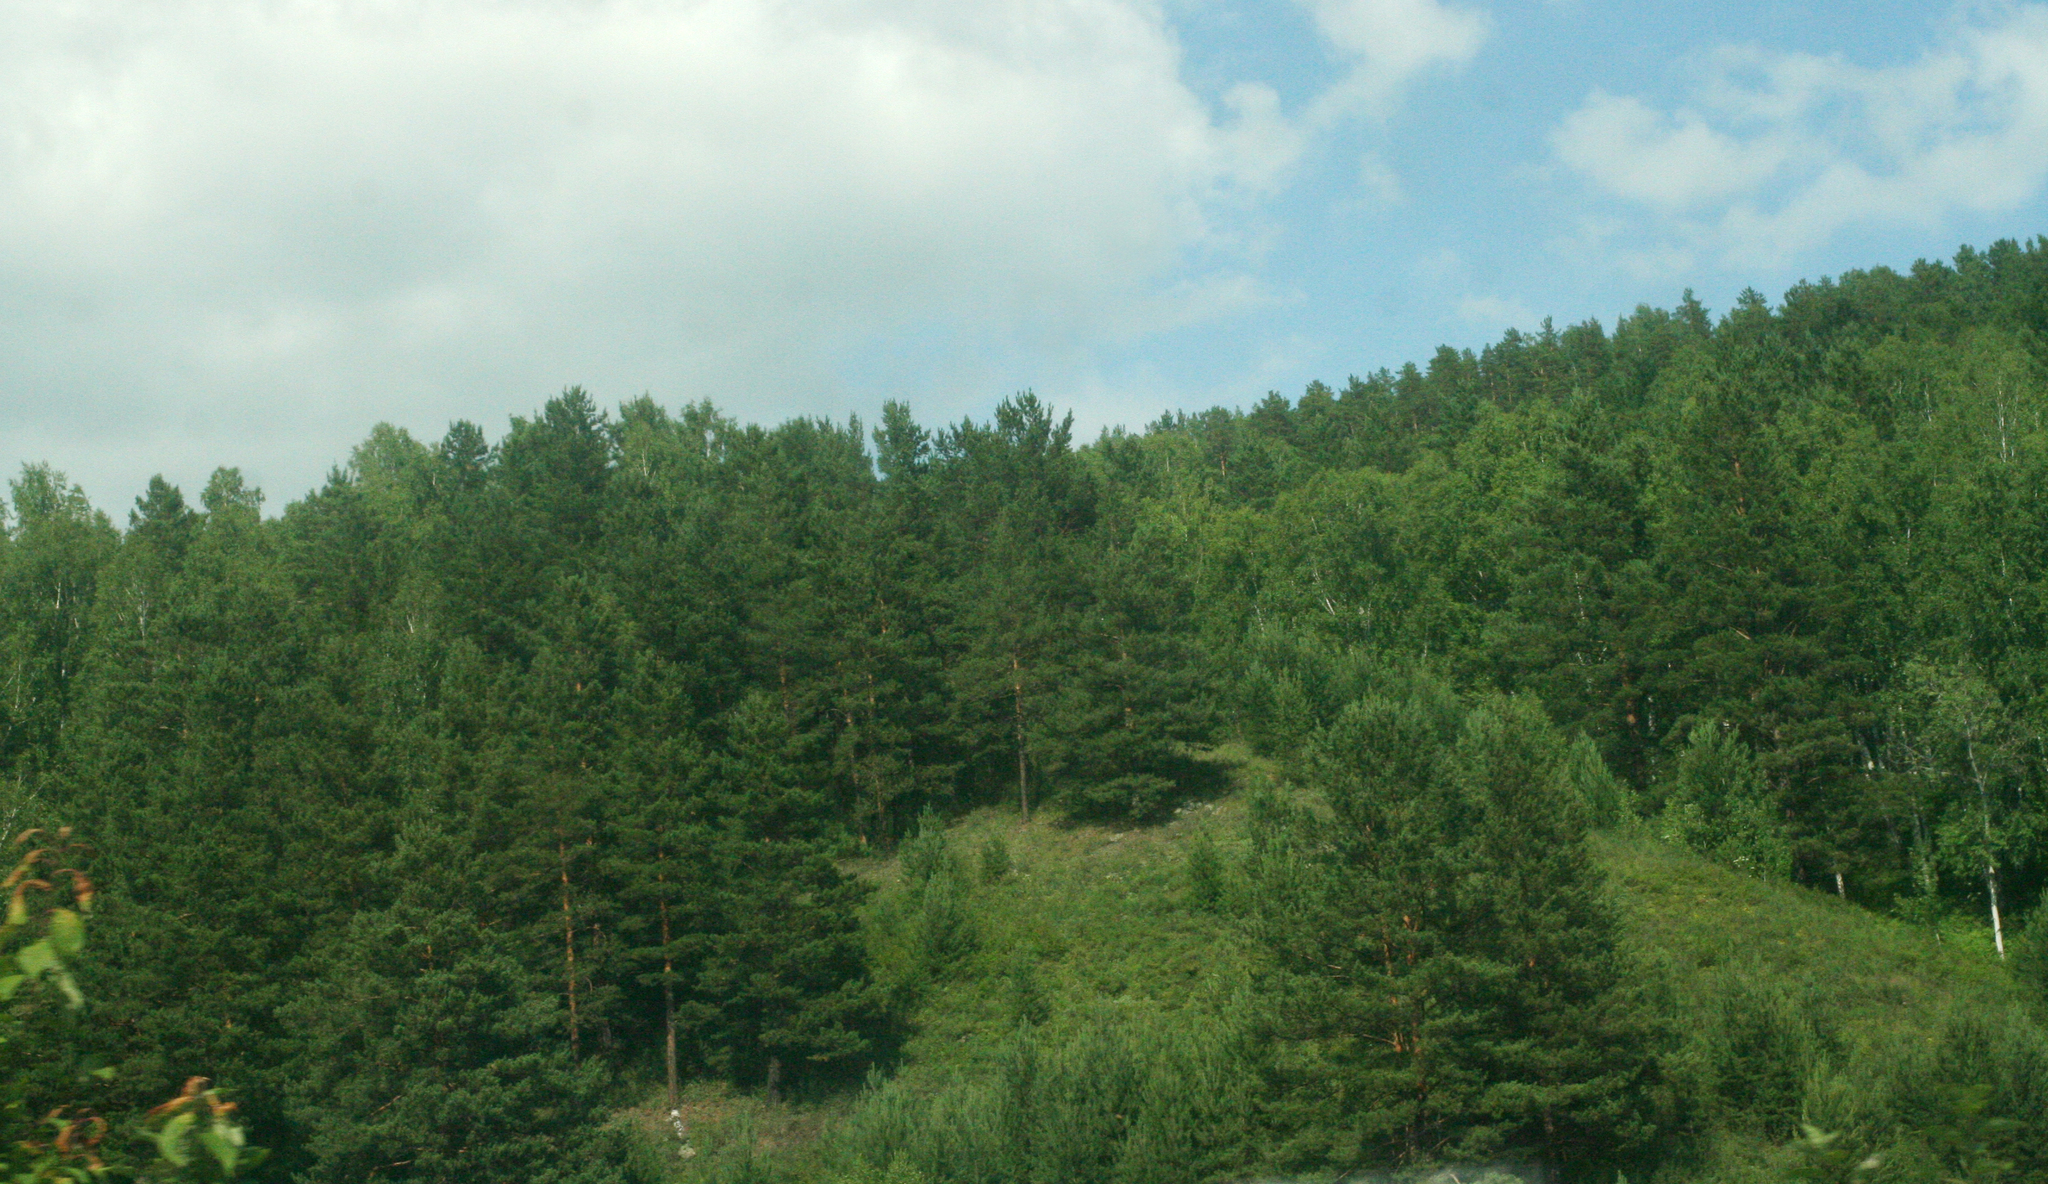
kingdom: Plantae
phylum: Tracheophyta
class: Pinopsida
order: Pinales
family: Pinaceae
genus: Pinus
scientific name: Pinus sylvestris
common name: Scots pine
